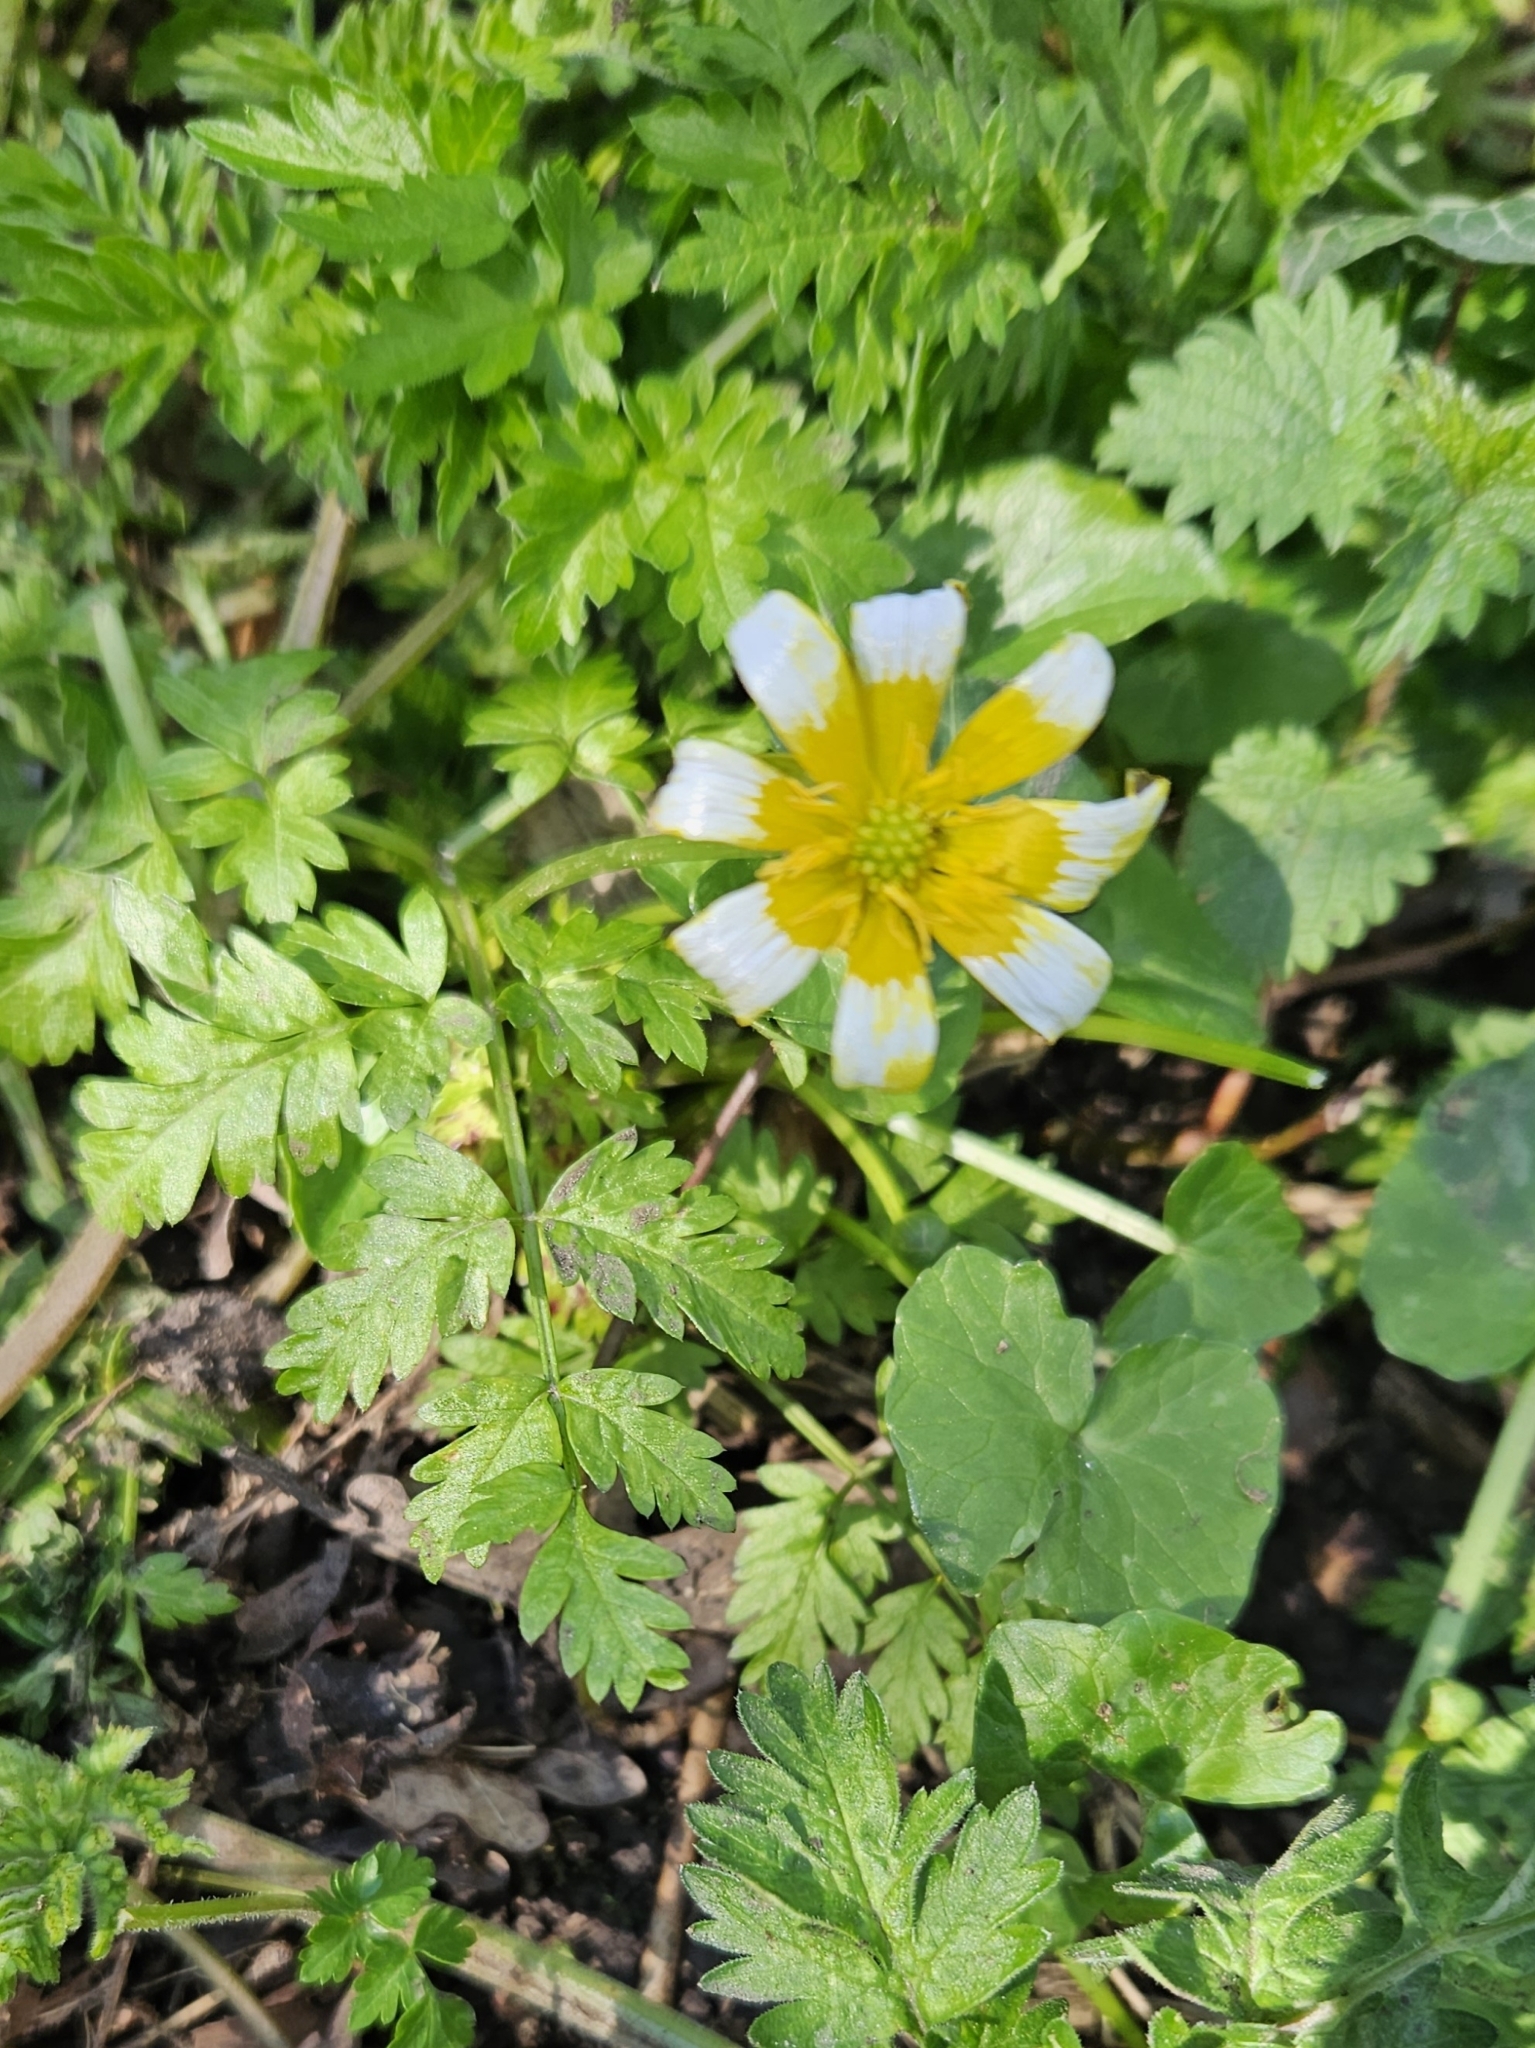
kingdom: Plantae
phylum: Tracheophyta
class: Magnoliopsida
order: Ranunculales
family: Ranunculaceae
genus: Ficaria
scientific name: Ficaria verna
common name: Lesser celandine
